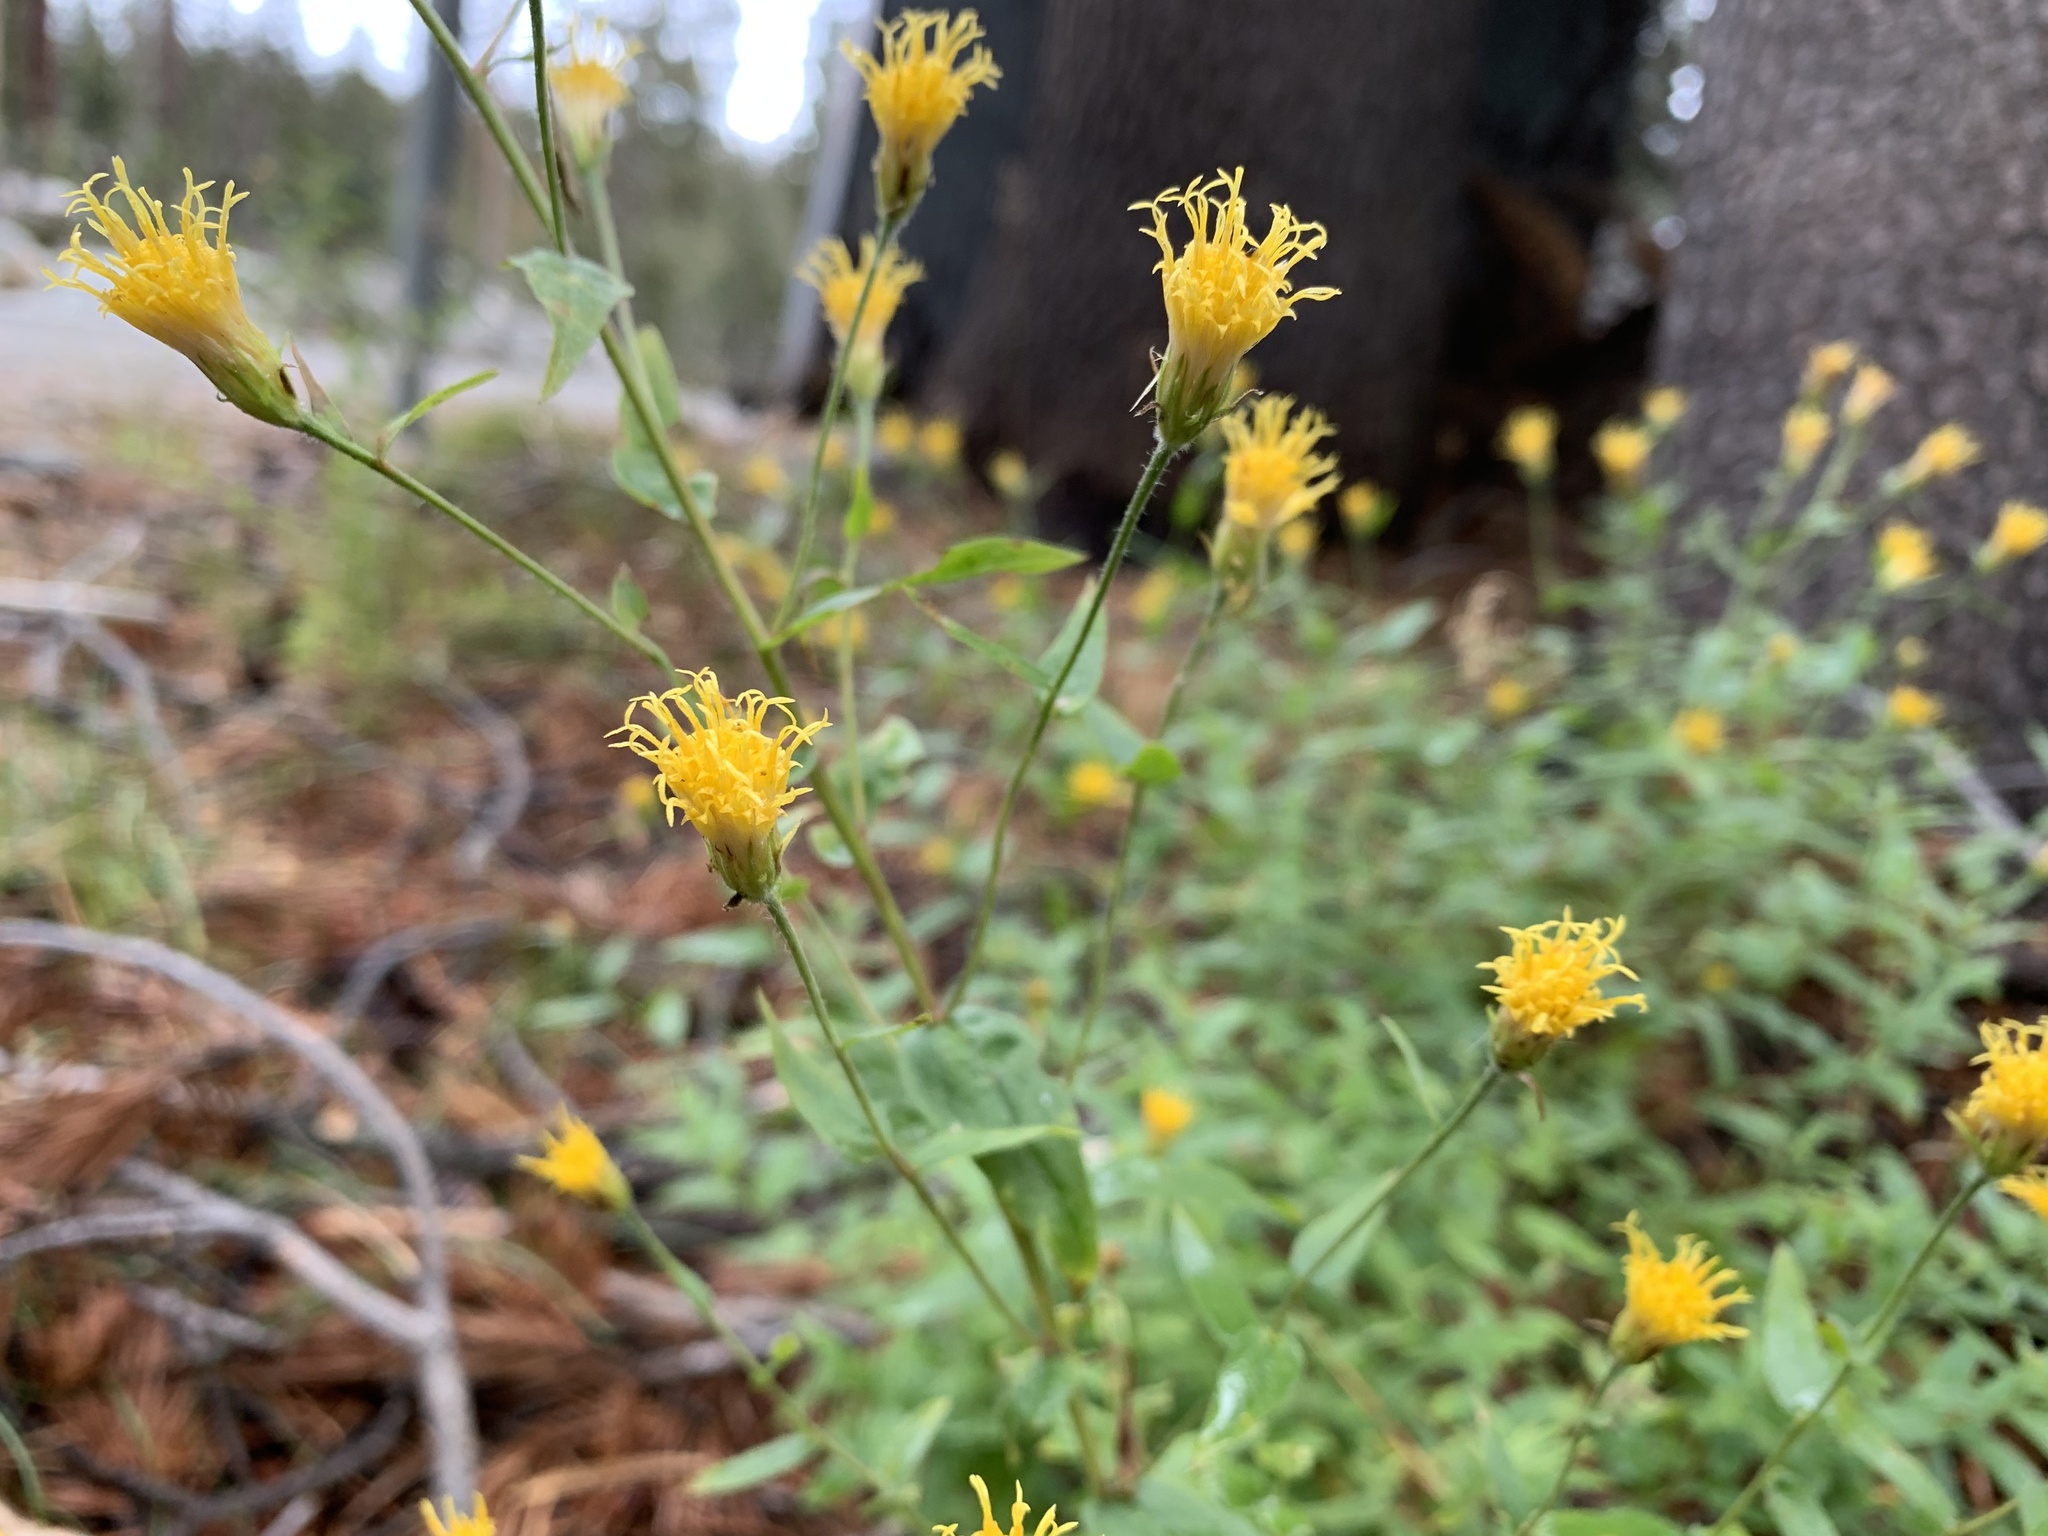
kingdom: Plantae
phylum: Tracheophyta
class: Magnoliopsida
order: Asterales
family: Asteraceae
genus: Eucephalus
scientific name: Eucephalus breweri
